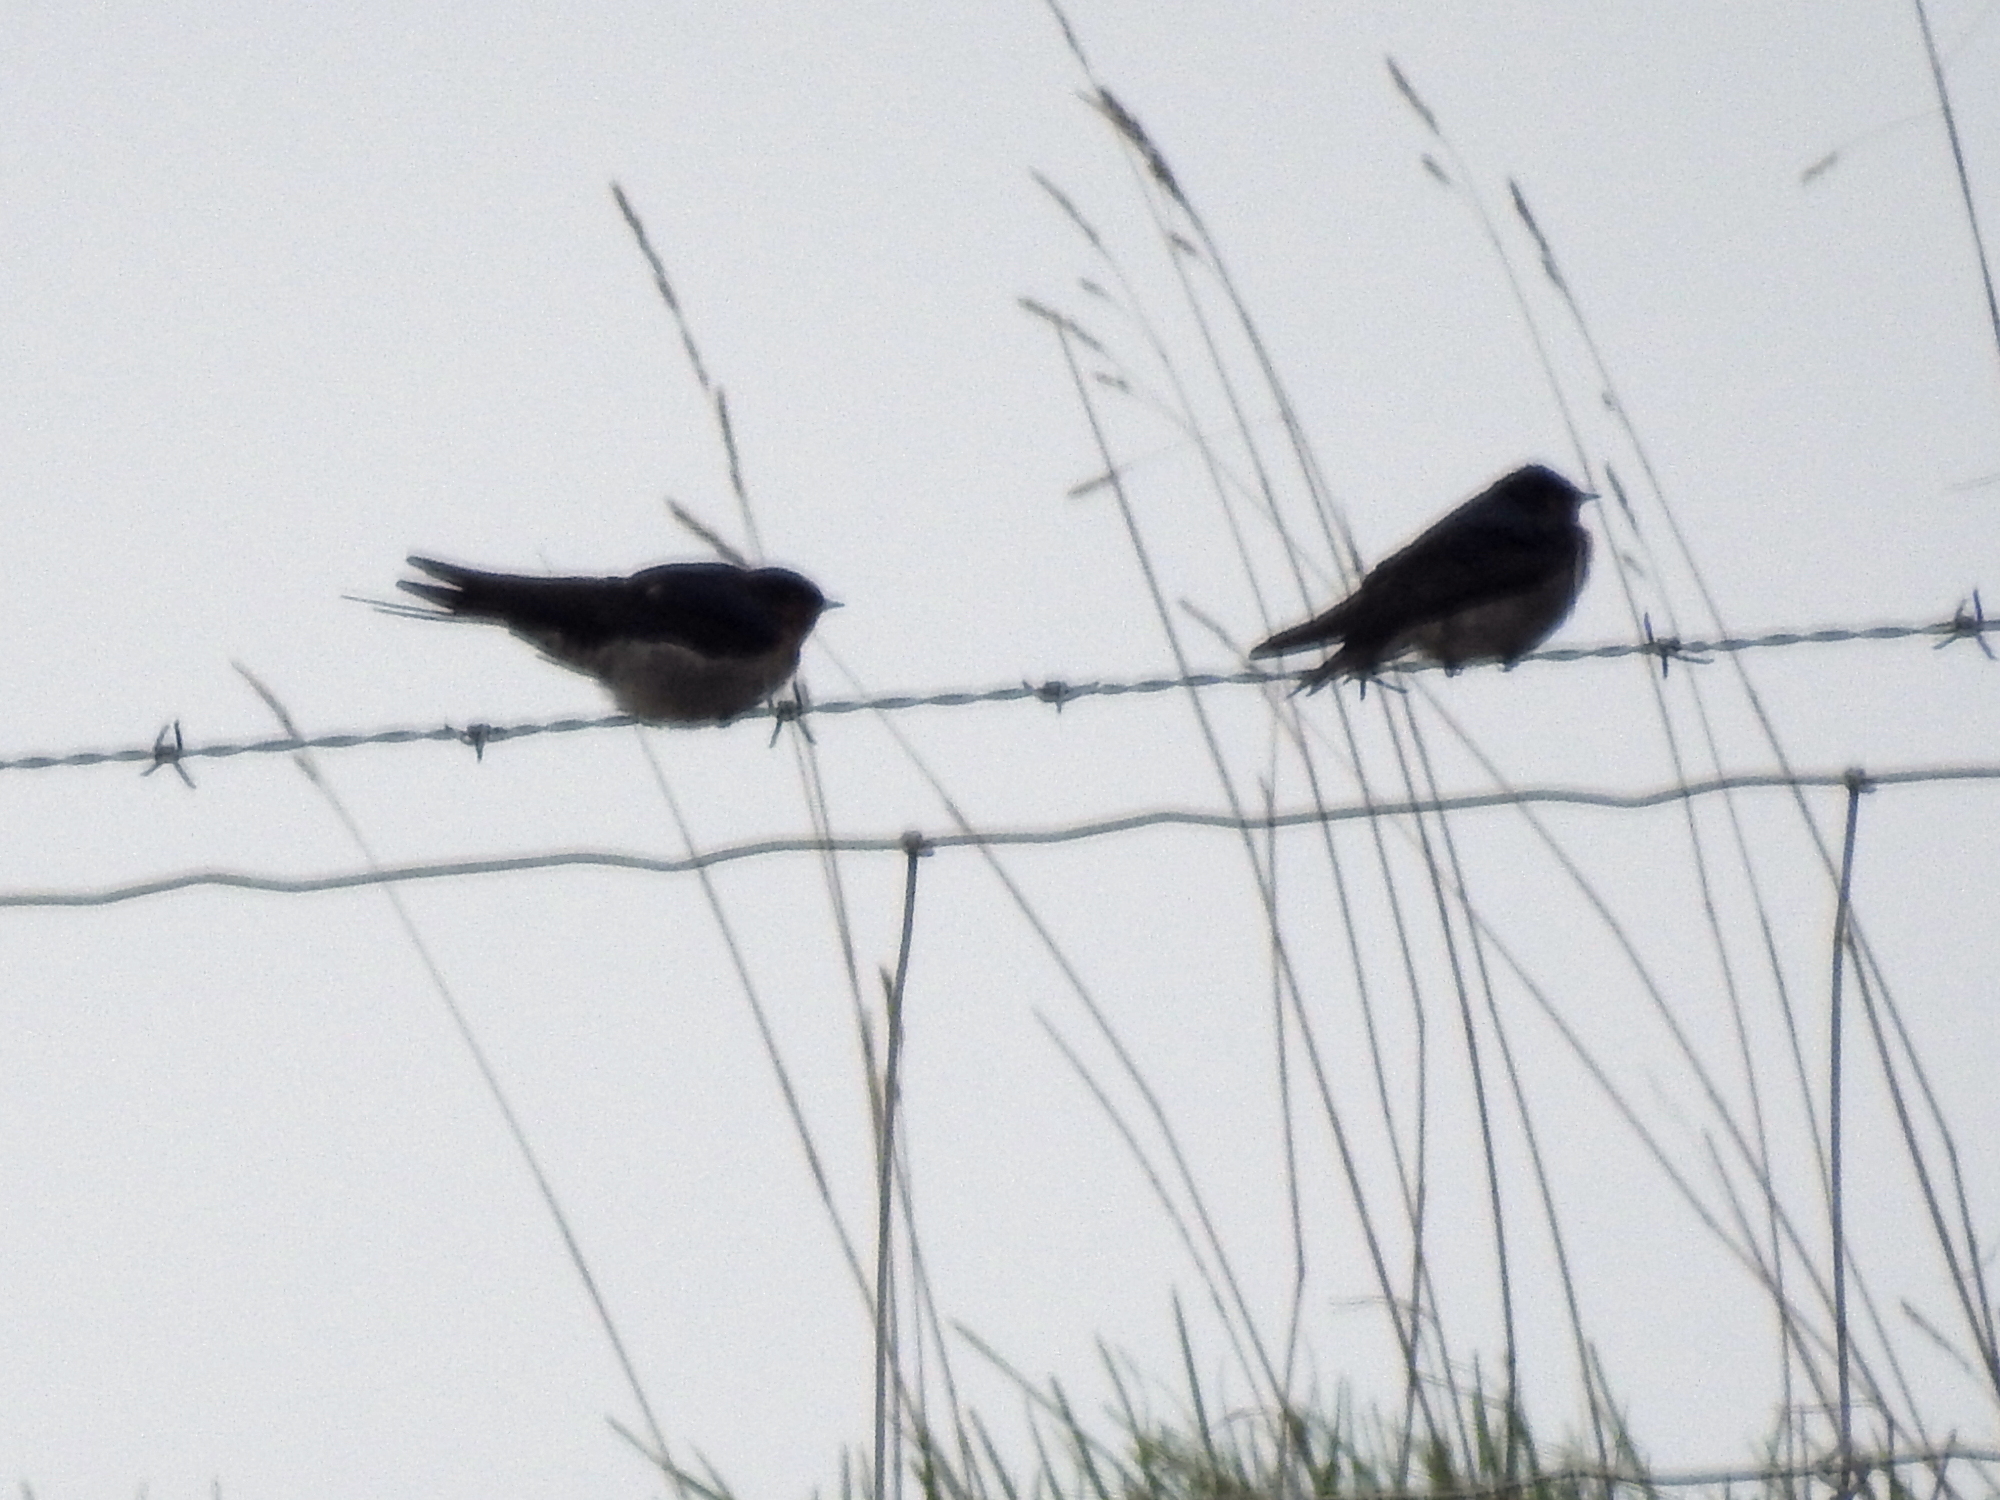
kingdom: Animalia
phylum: Chordata
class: Aves
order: Passeriformes
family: Hirundinidae
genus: Hirundo
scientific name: Hirundo neoxena
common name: Welcome swallow
